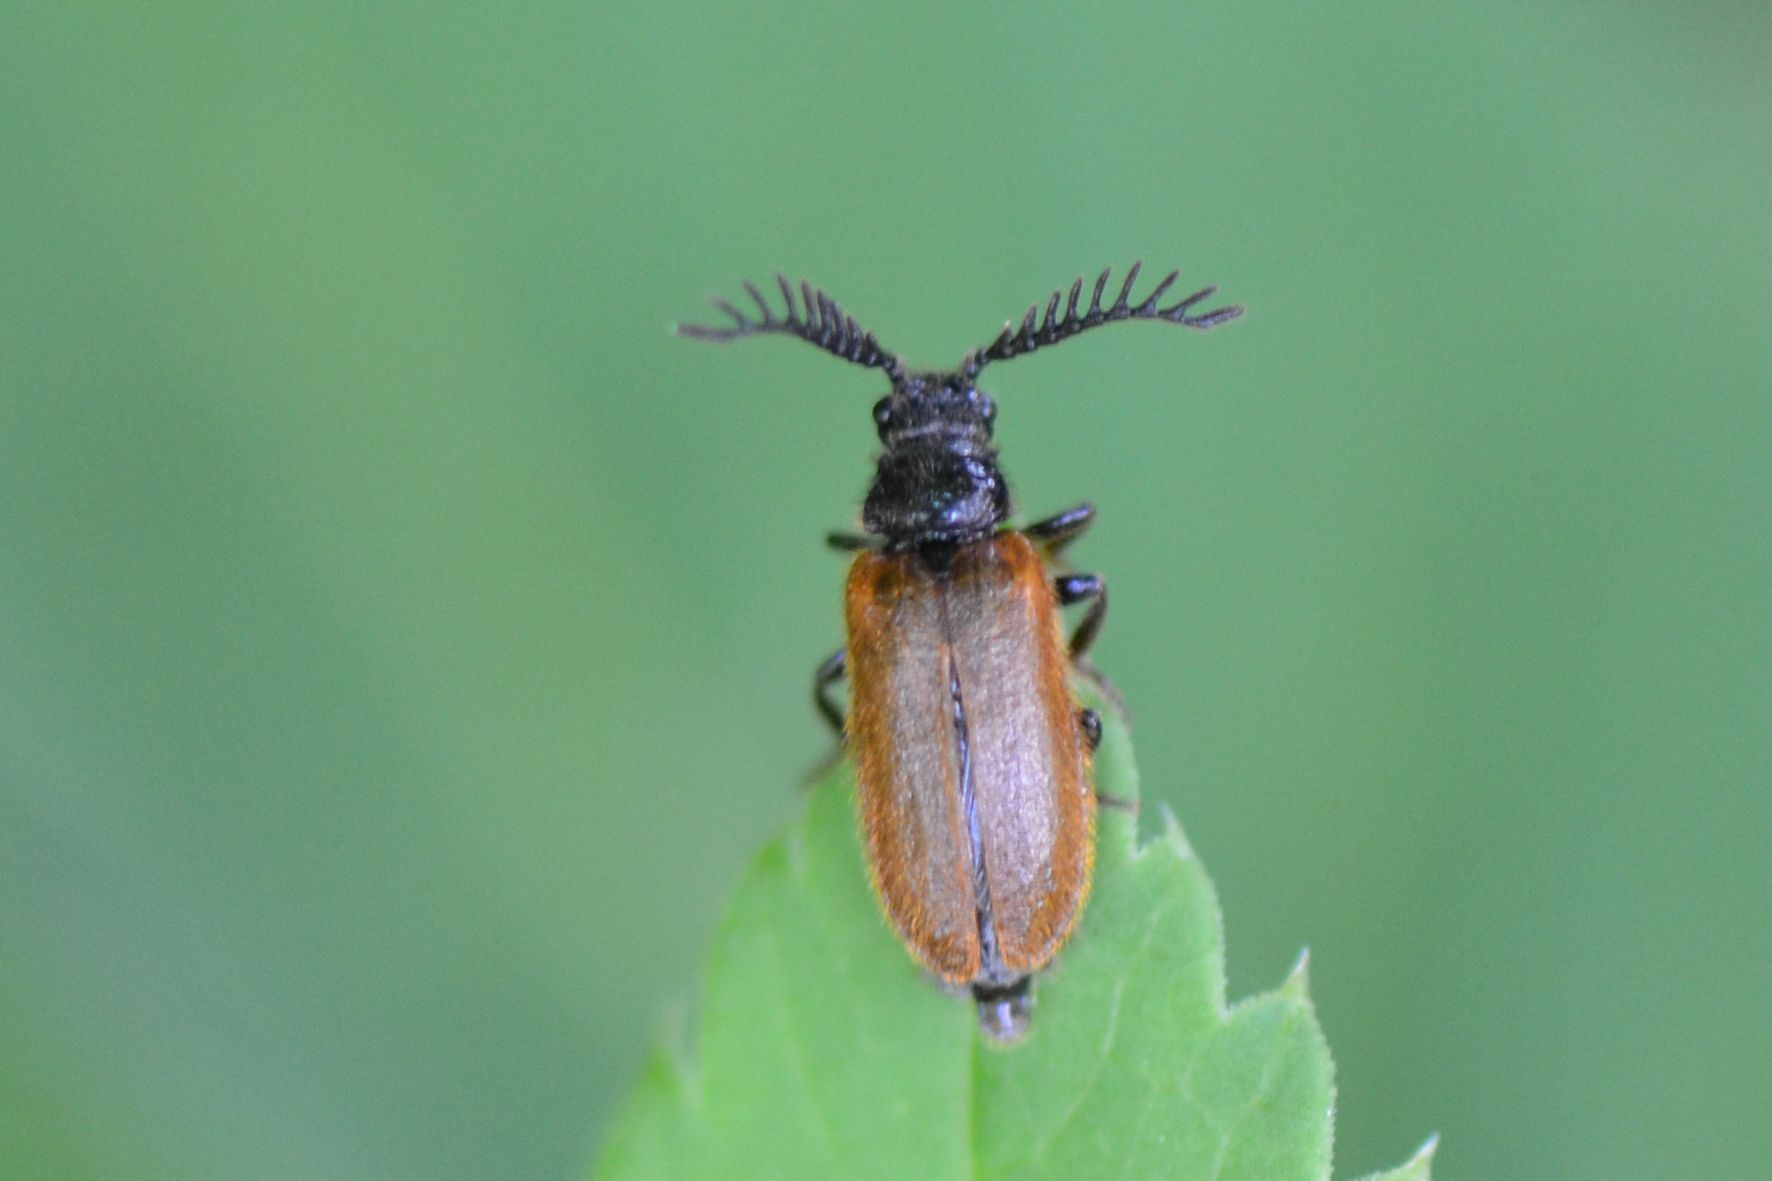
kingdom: Animalia
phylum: Arthropoda
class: Insecta
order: Coleoptera
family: Drilidae
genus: Drilus
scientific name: Drilus flavescens
